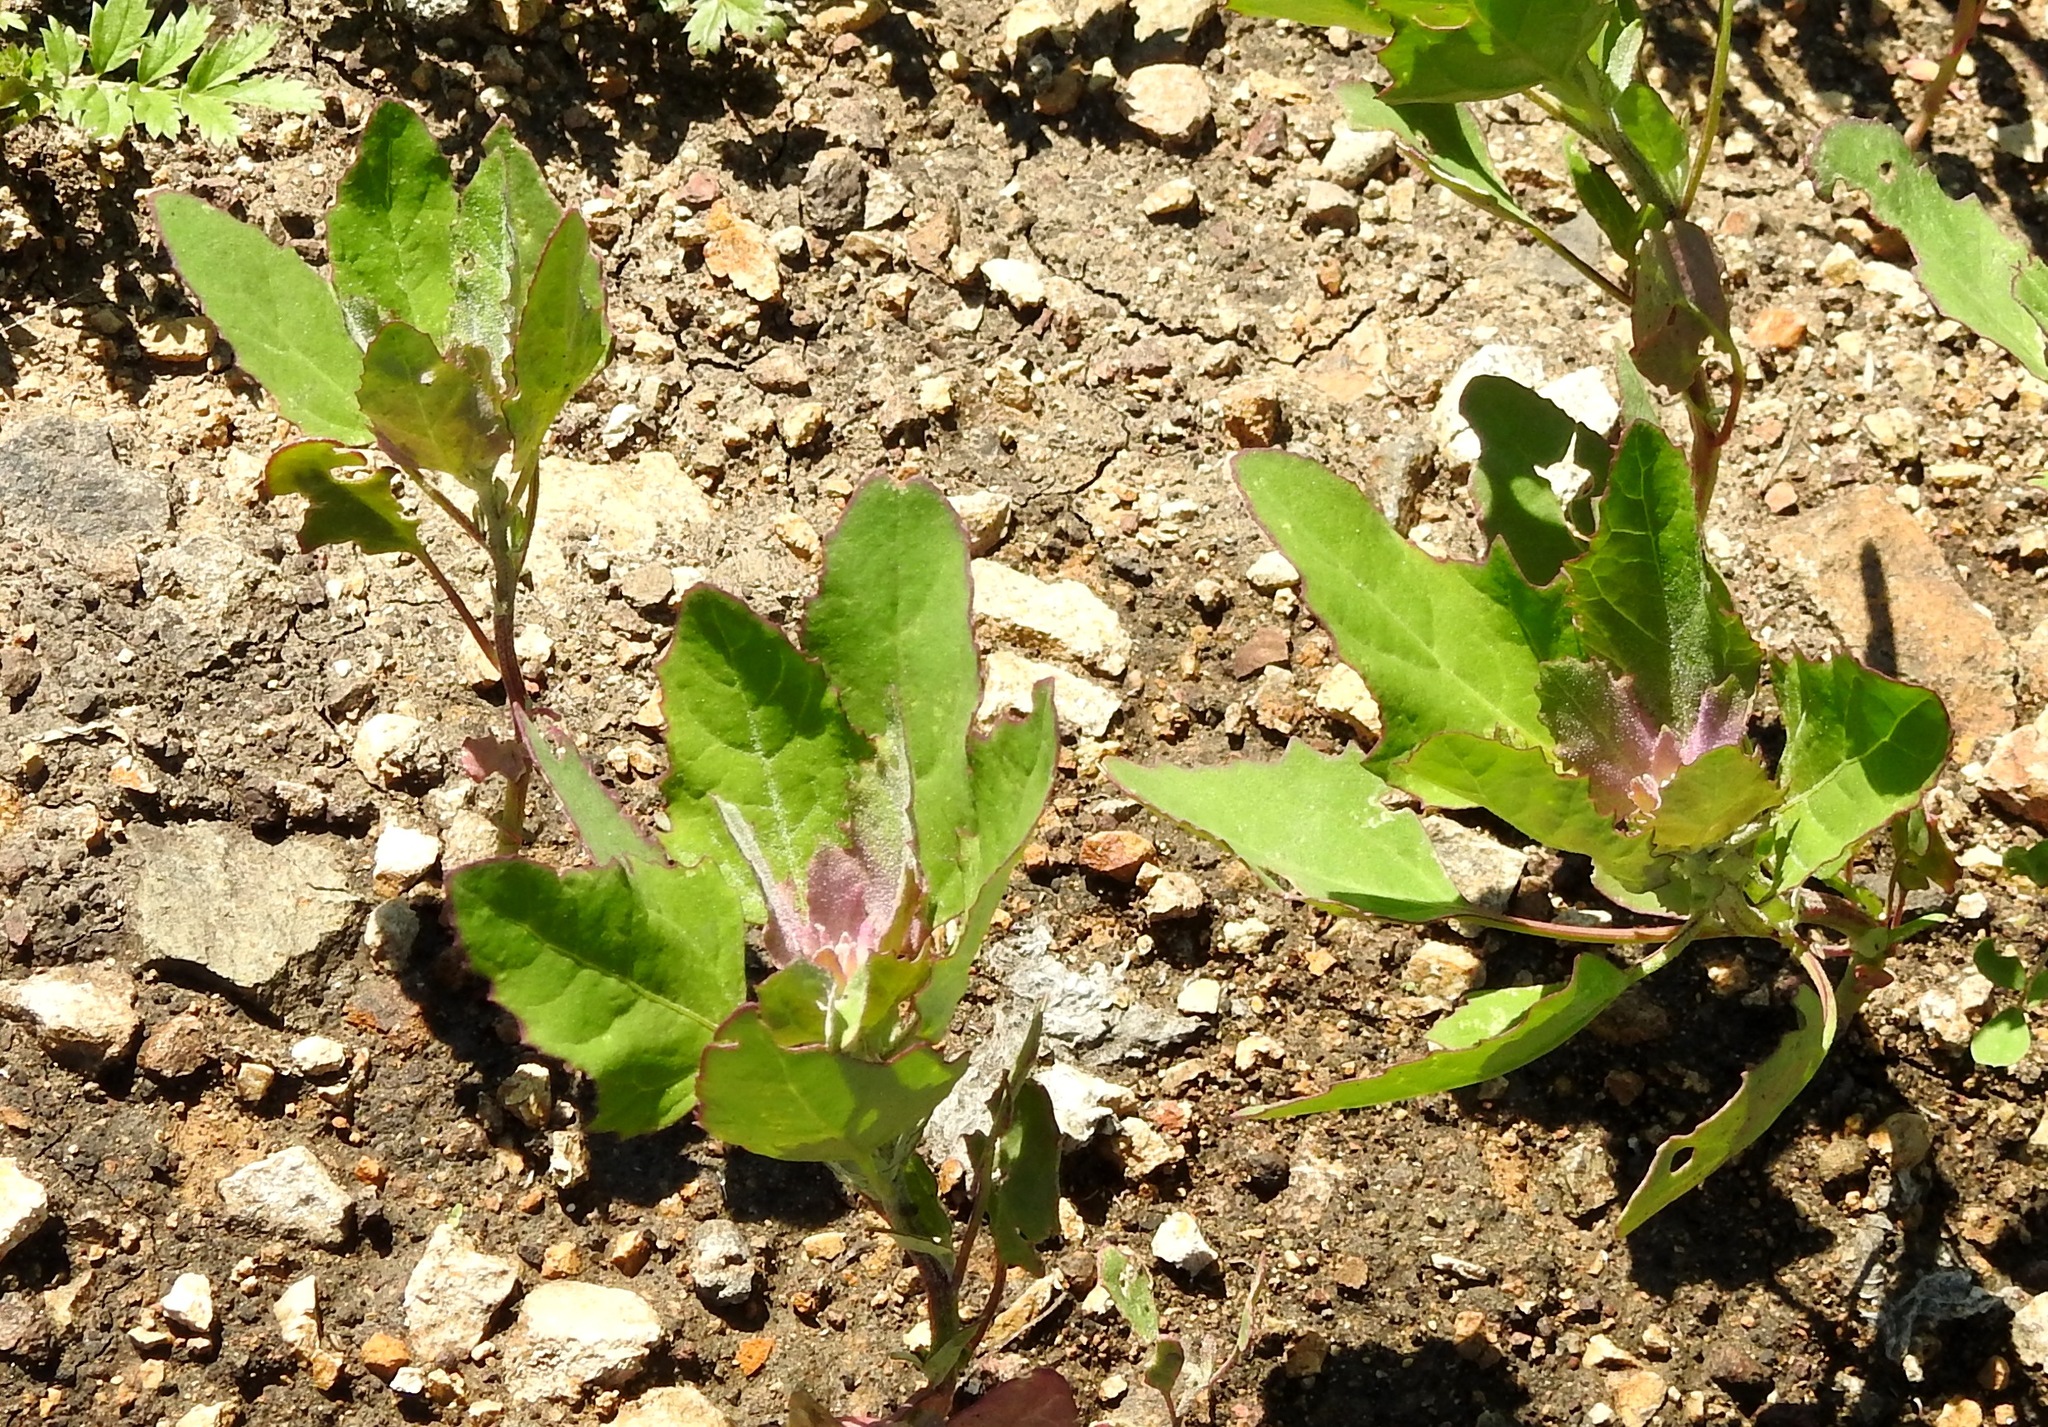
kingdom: Plantae
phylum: Tracheophyta
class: Magnoliopsida
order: Caryophyllales
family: Amaranthaceae
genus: Chenopodium
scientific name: Chenopodium album
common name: Fat-hen
